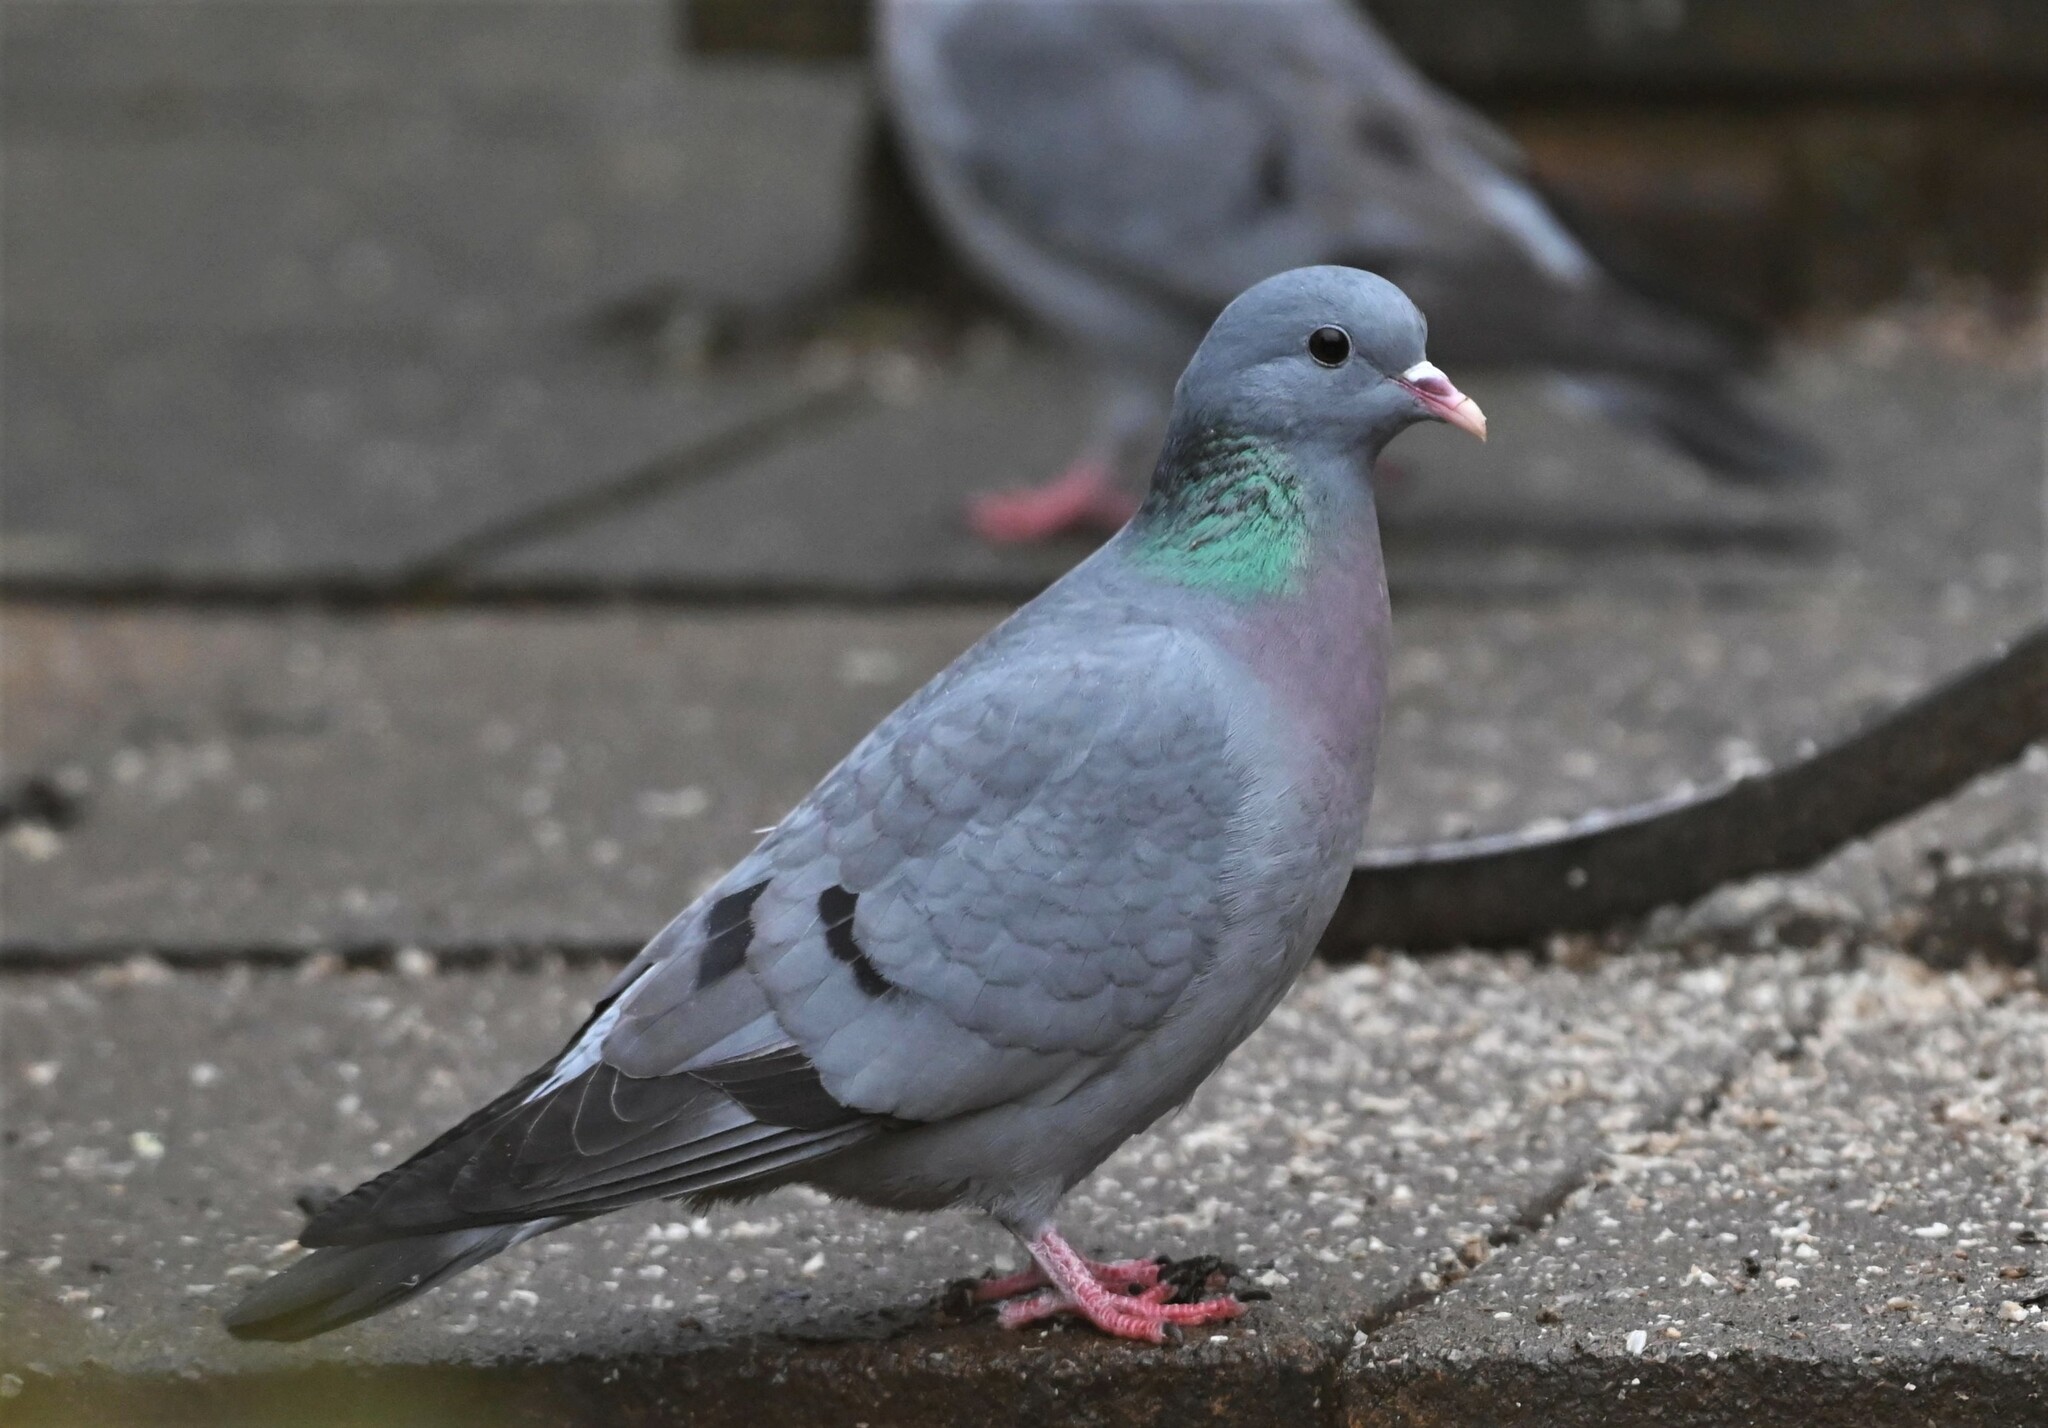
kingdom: Animalia
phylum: Chordata
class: Aves
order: Columbiformes
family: Columbidae
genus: Columba
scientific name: Columba oenas
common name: Stock dove
